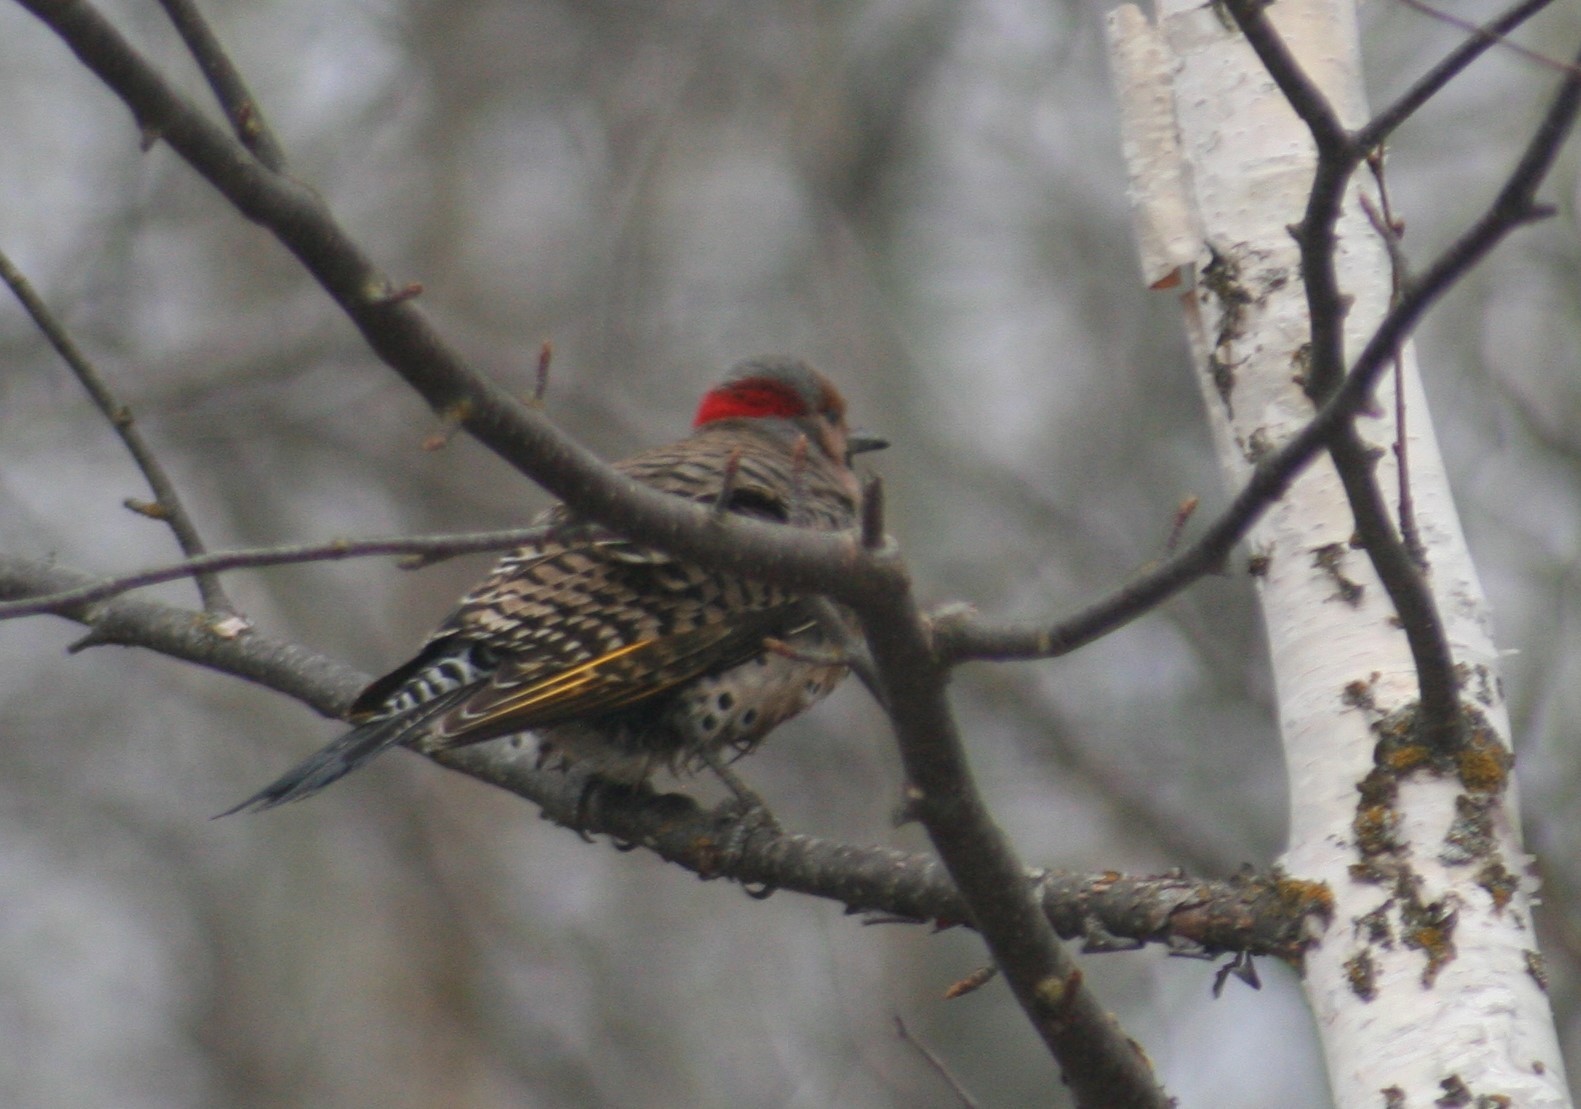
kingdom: Animalia
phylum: Chordata
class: Aves
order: Piciformes
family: Picidae
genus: Colaptes
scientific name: Colaptes auratus
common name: Northern flicker
